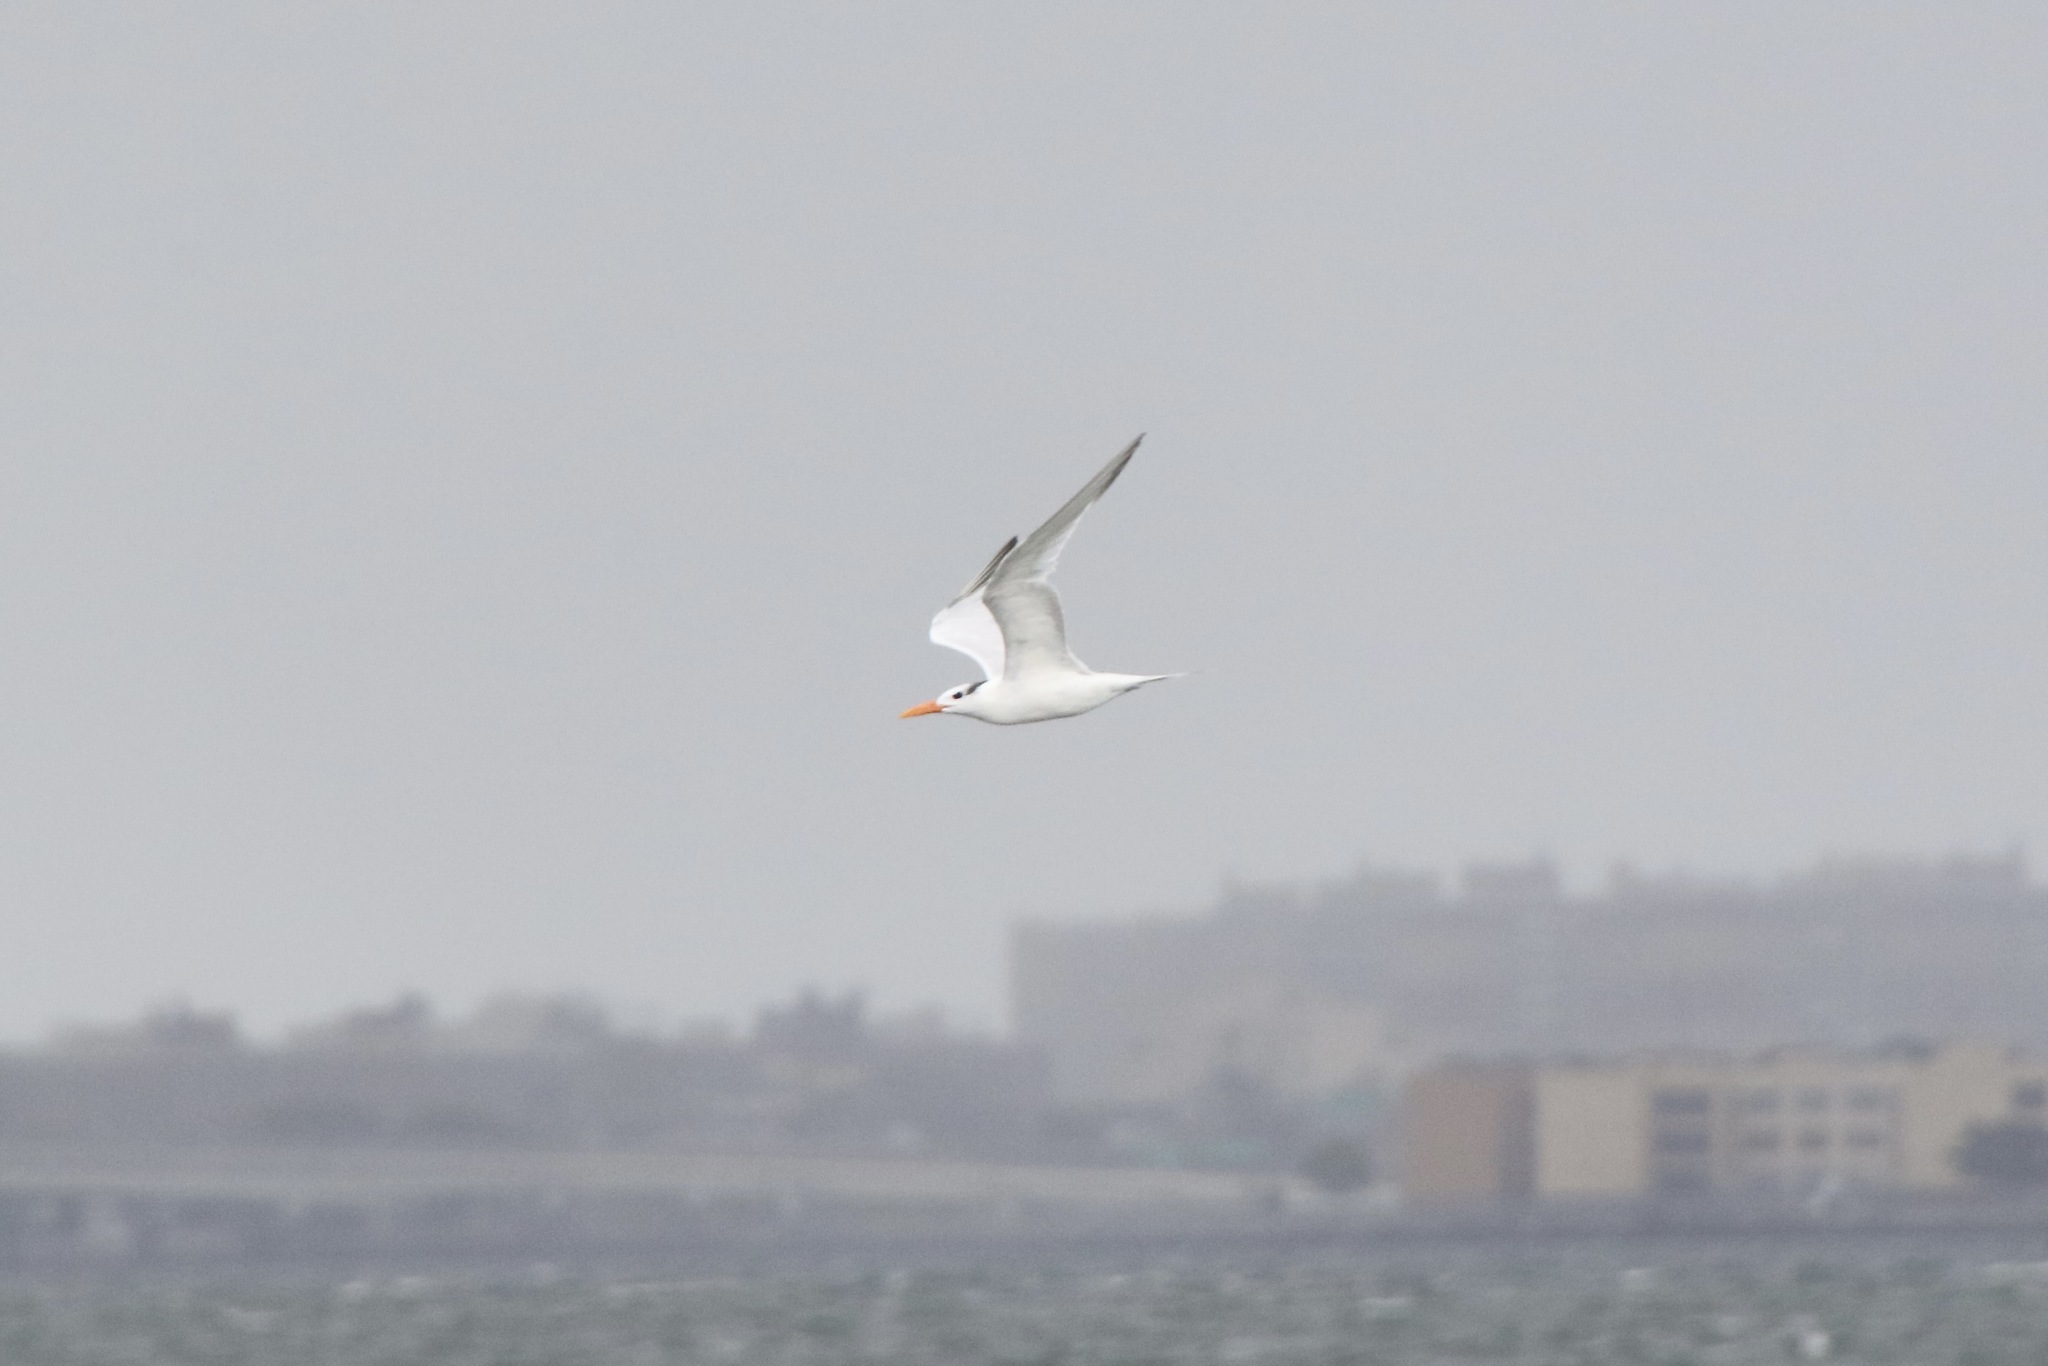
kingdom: Animalia
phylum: Chordata
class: Aves
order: Charadriiformes
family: Laridae
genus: Thalasseus
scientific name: Thalasseus maximus
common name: Royal tern
